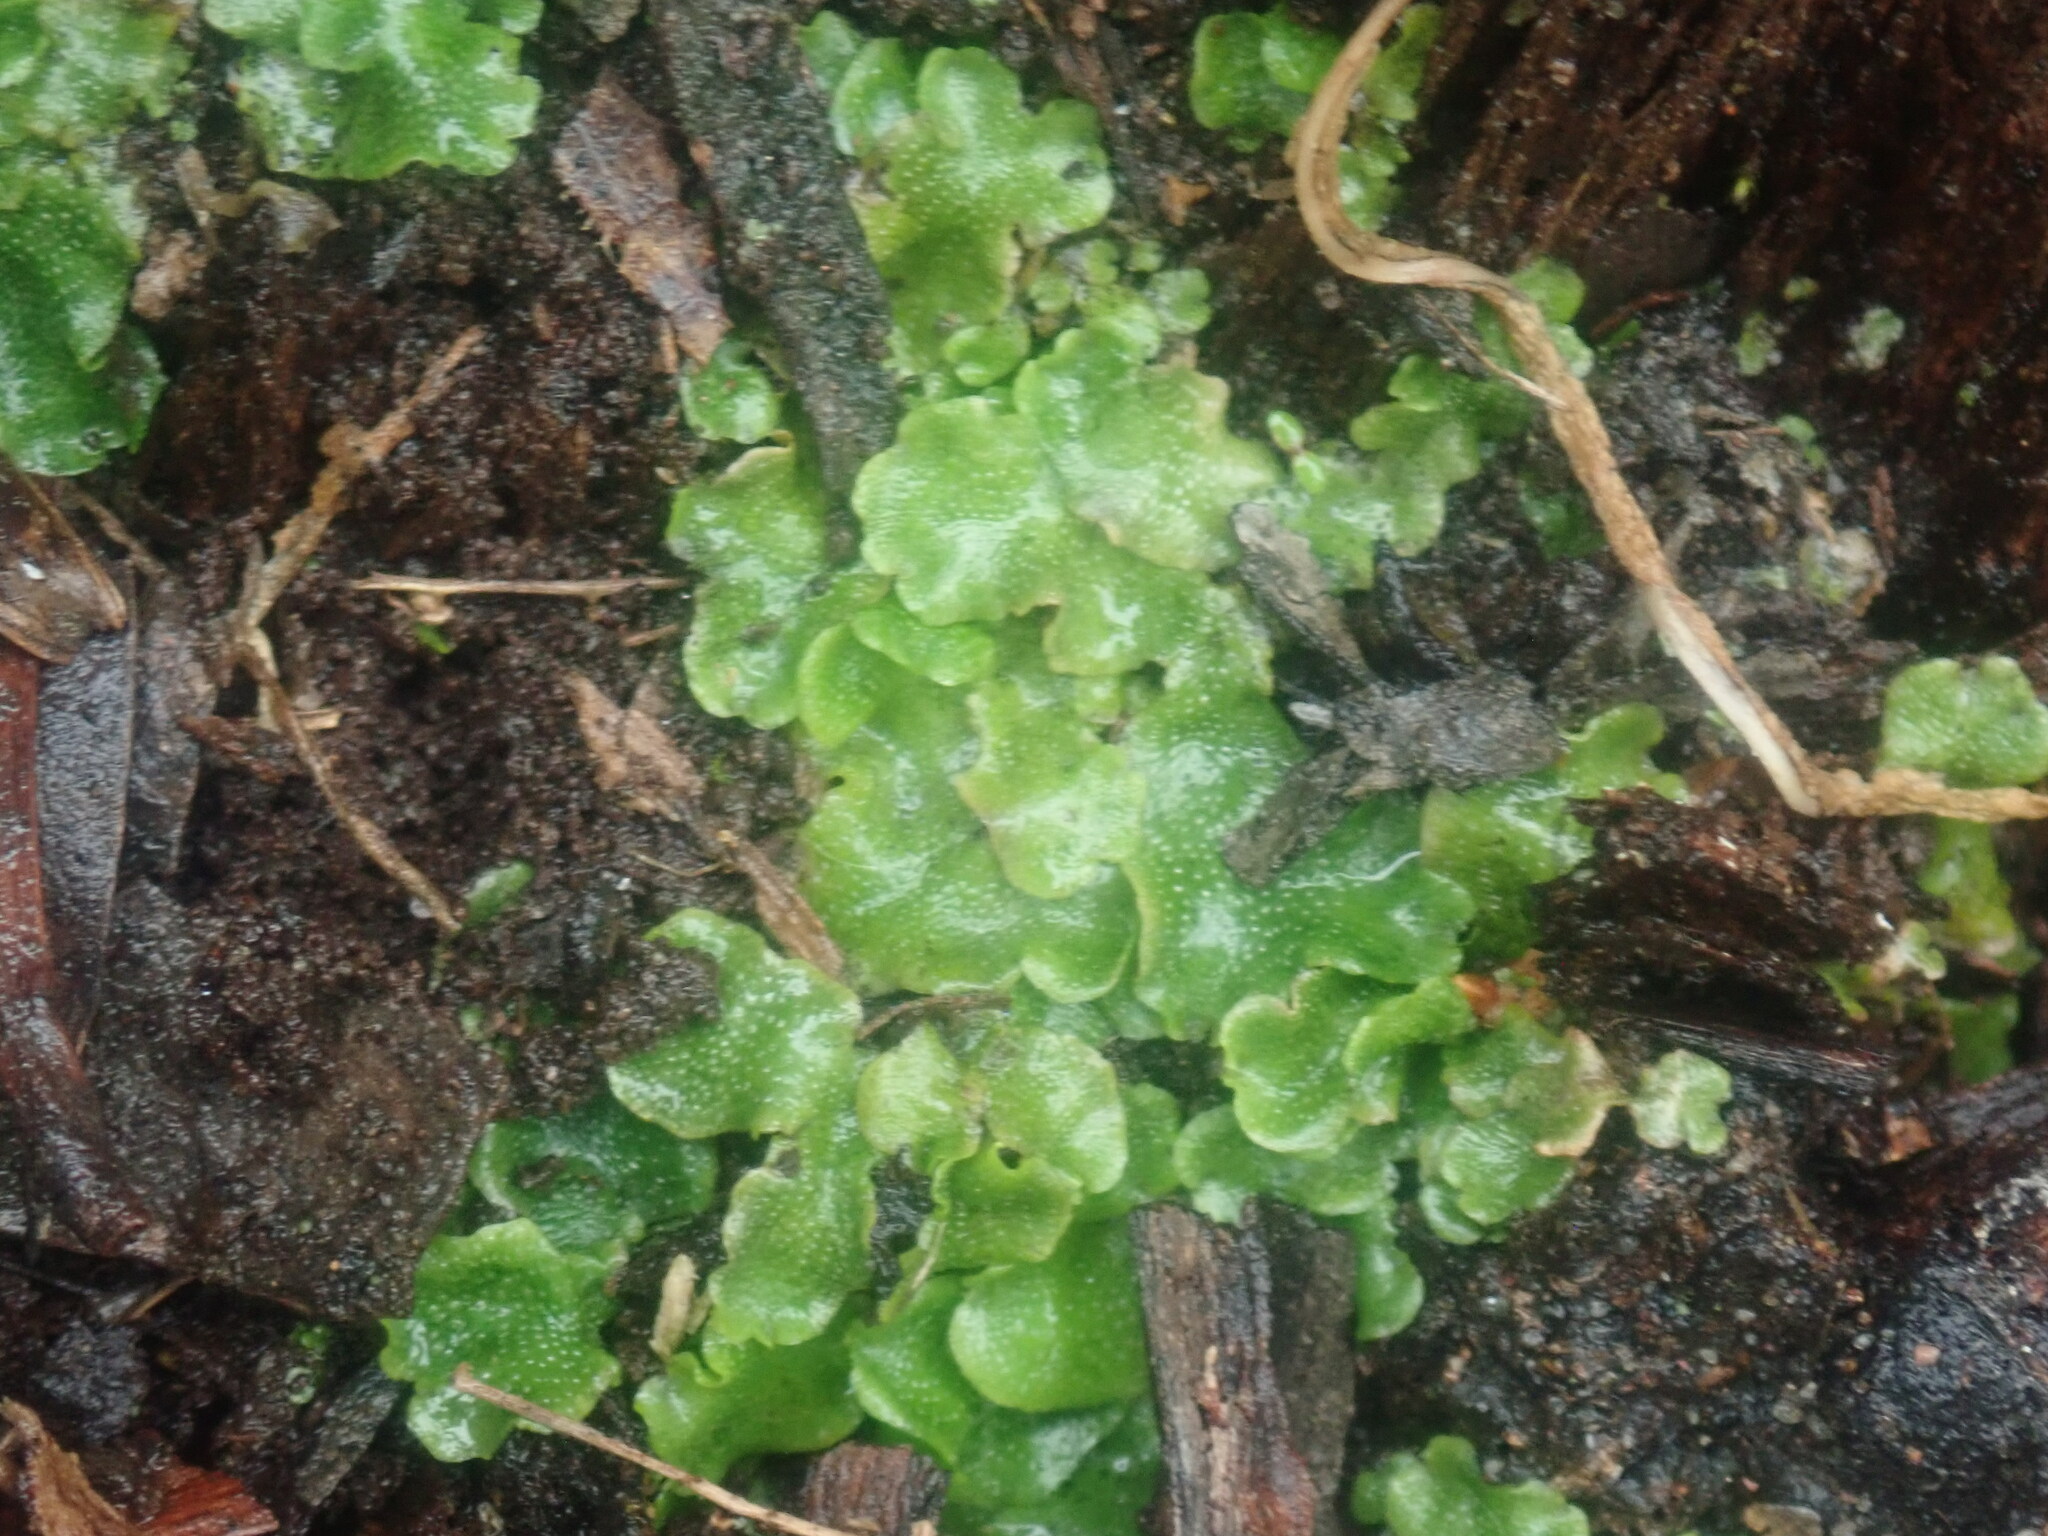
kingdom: Plantae
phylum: Marchantiophyta
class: Marchantiopsida
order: Lunulariales
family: Lunulariaceae
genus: Lunularia
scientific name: Lunularia cruciata
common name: Crescent-cup liverwort
